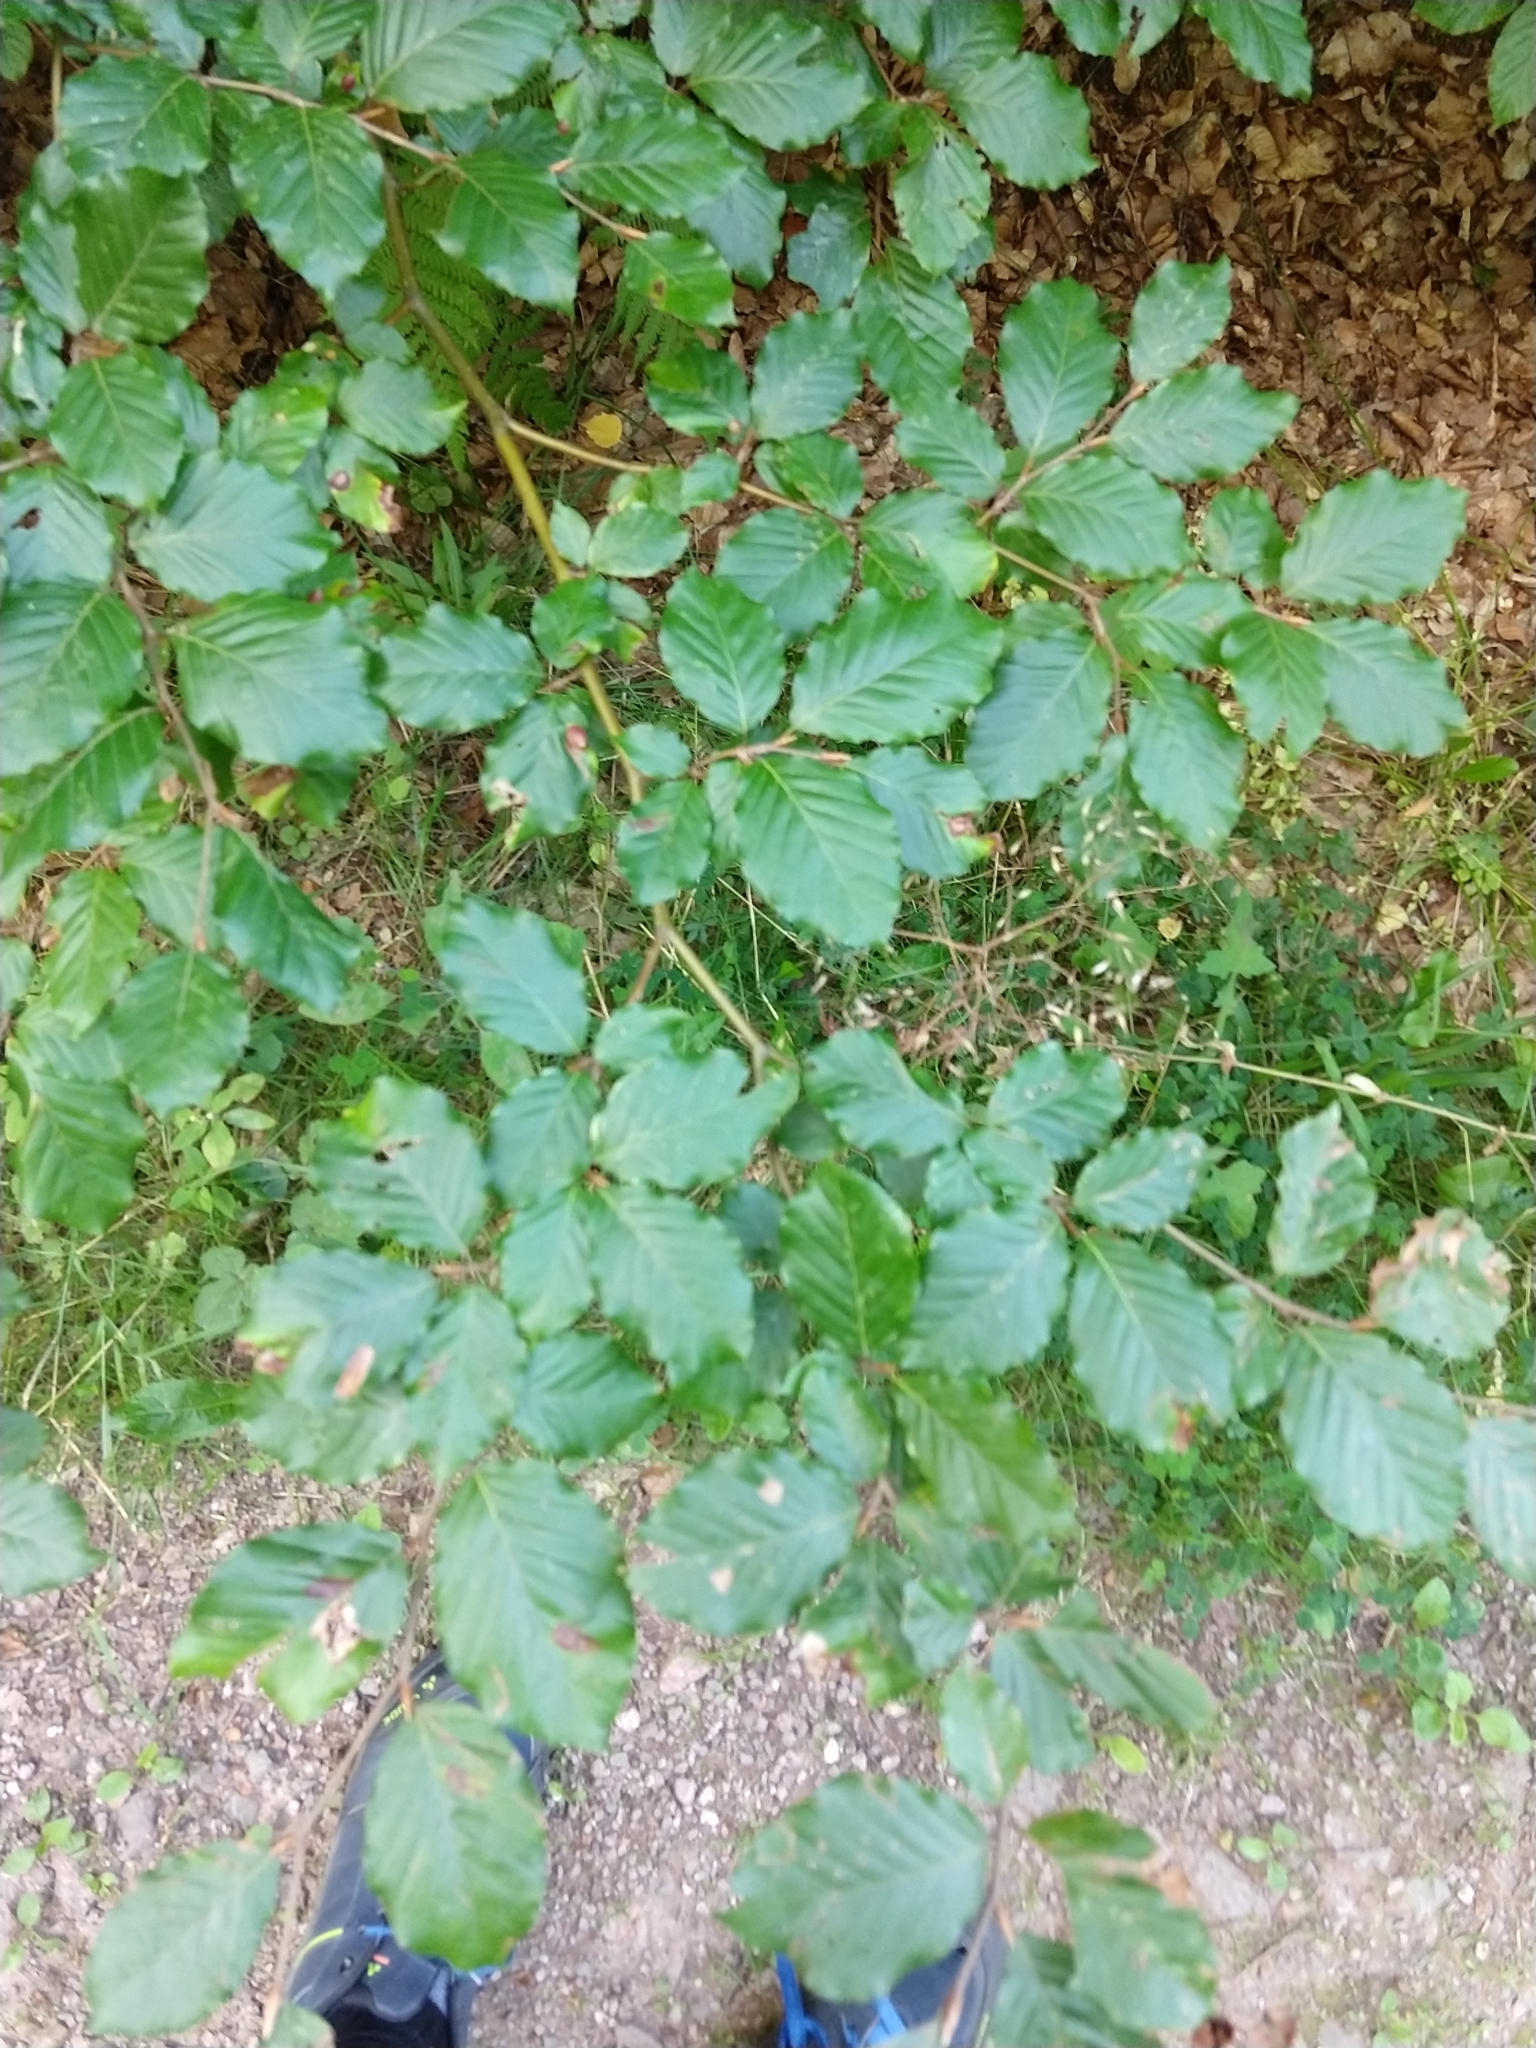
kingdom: Plantae
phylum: Tracheophyta
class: Magnoliopsida
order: Fagales
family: Fagaceae
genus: Fagus
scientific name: Fagus sylvatica
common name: Beech
